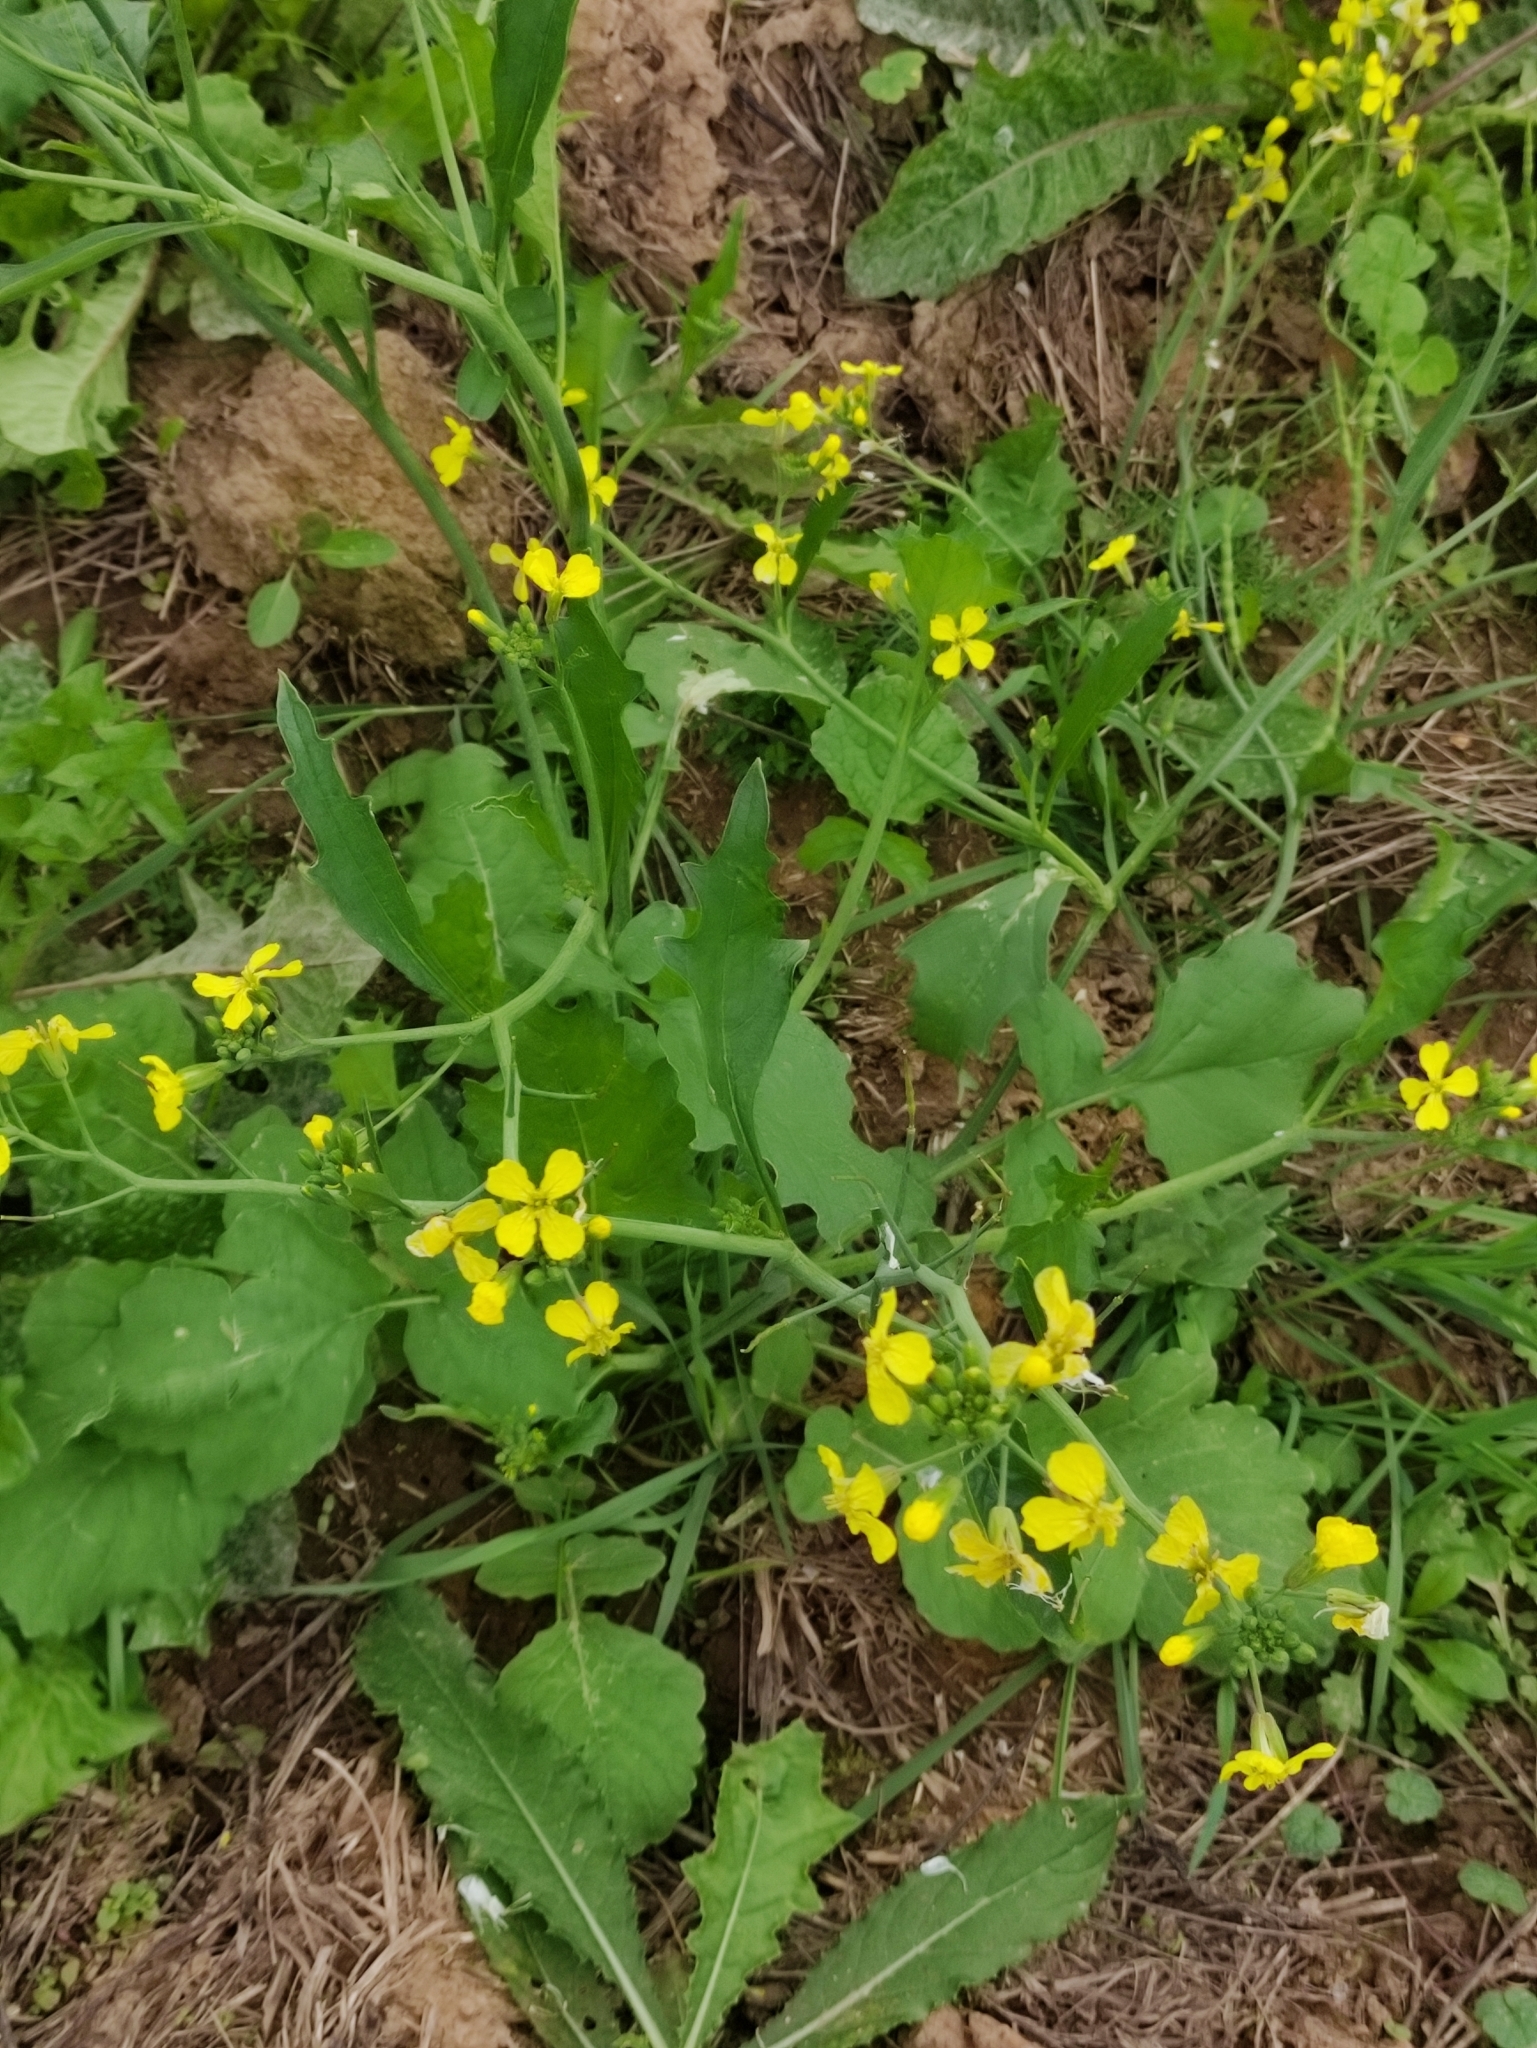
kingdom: Plantae
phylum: Tracheophyta
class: Magnoliopsida
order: Brassicales
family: Brassicaceae
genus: Raphanus
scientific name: Raphanus raphanistrum
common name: Wild radish
